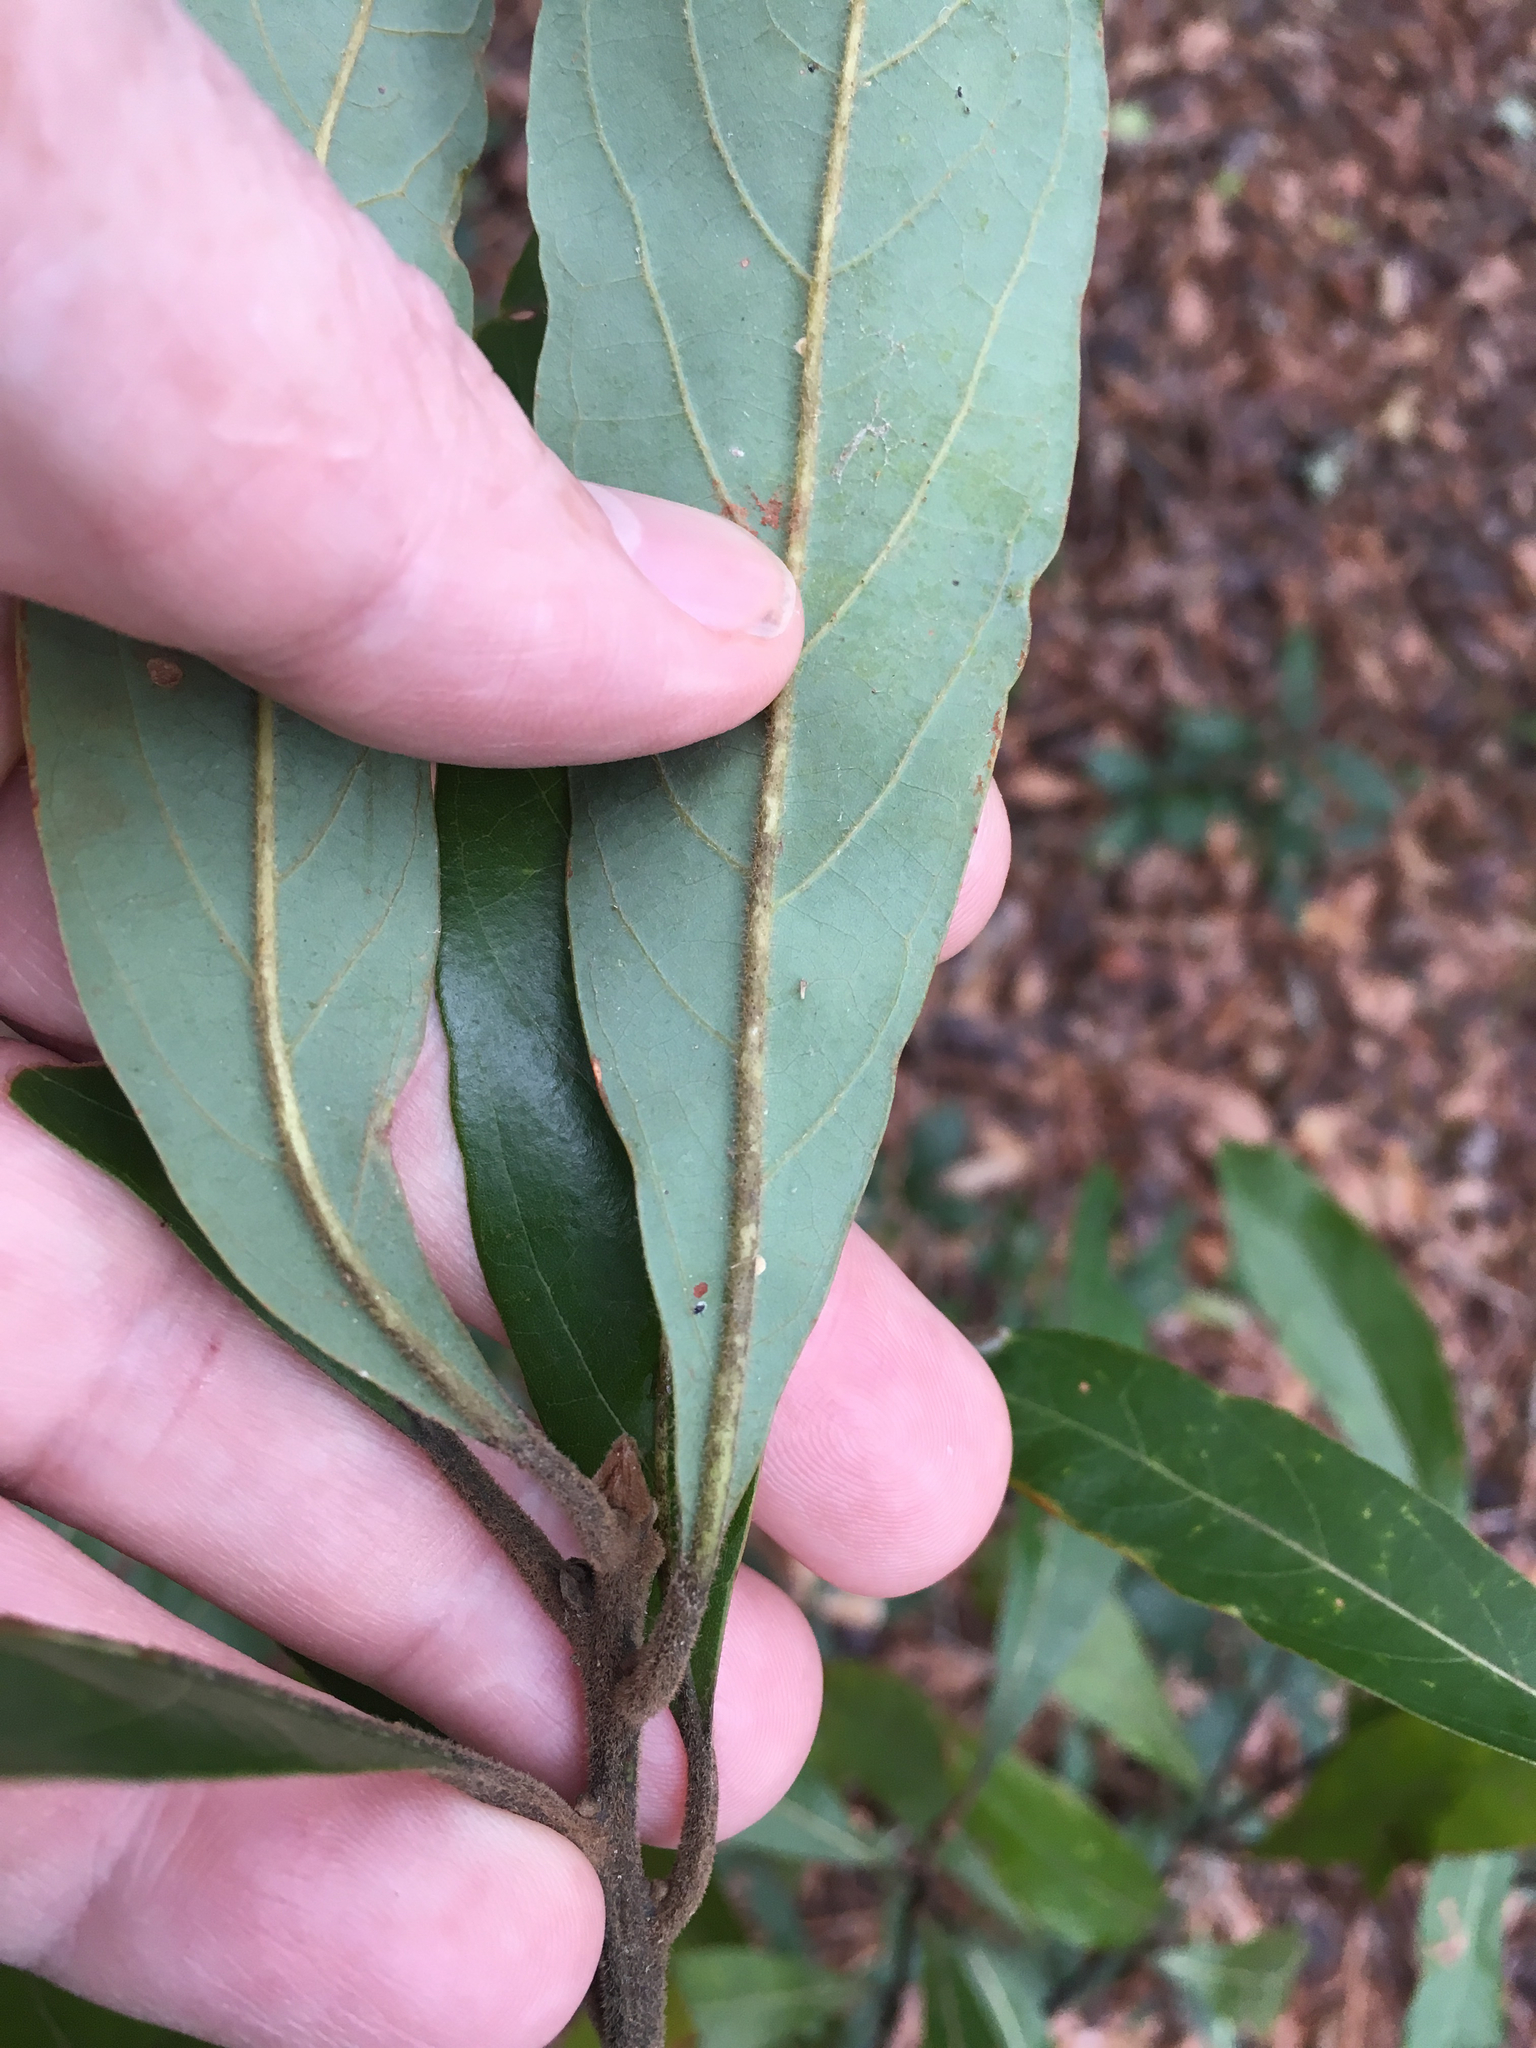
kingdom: Plantae
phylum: Tracheophyta
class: Magnoliopsida
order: Laurales
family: Lauraceae
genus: Persea
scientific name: Persea palustris
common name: Swampbay
